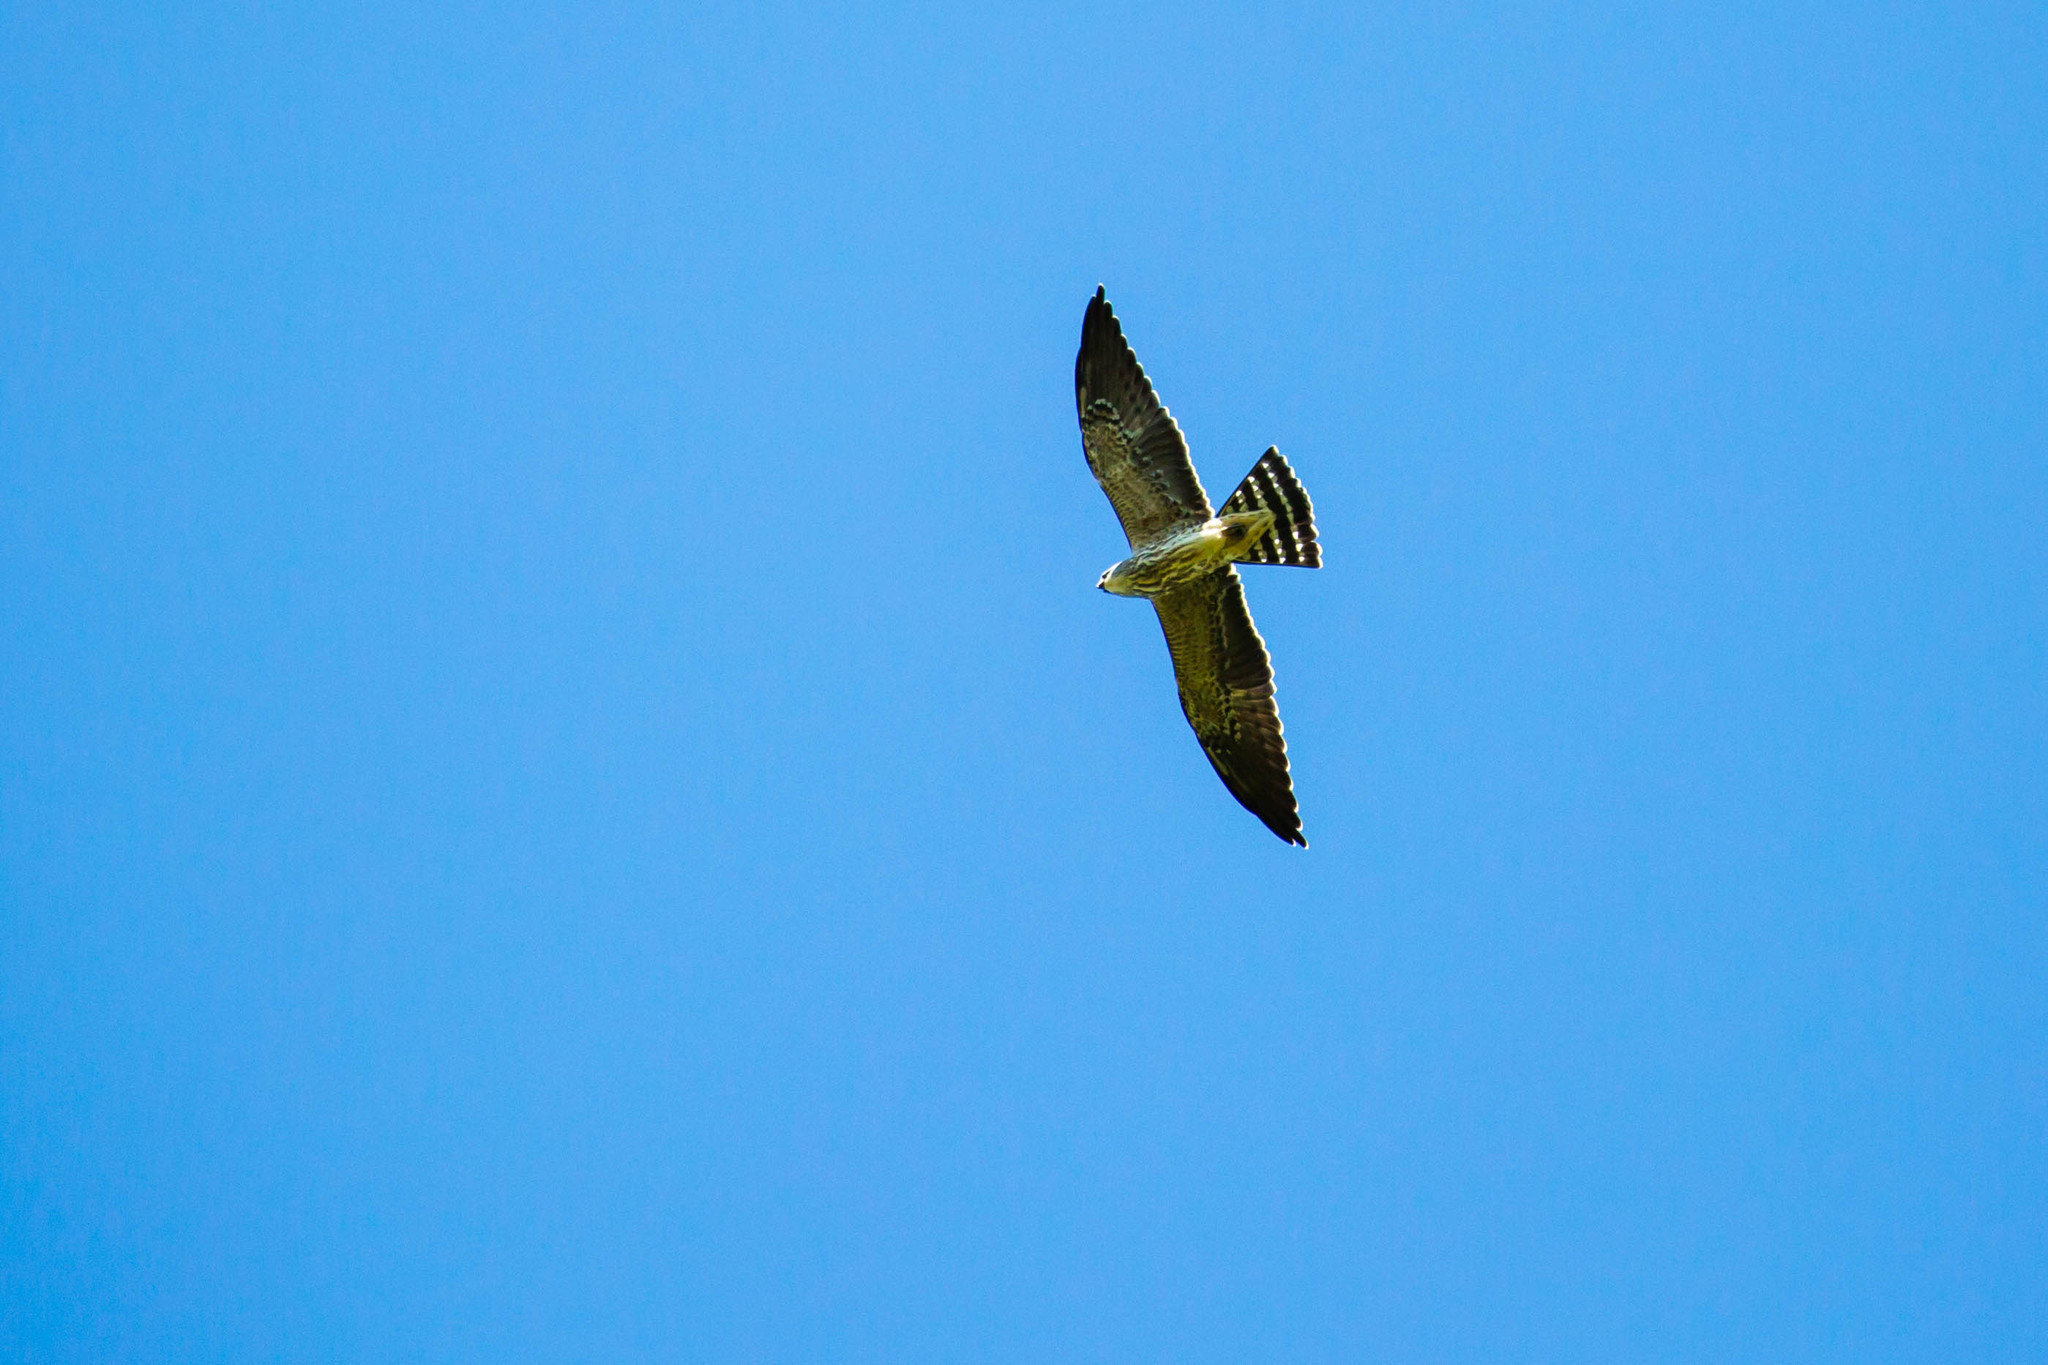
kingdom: Animalia
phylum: Chordata
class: Aves
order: Accipitriformes
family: Accipitridae
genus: Ictinia
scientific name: Ictinia mississippiensis
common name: Mississippi kite
